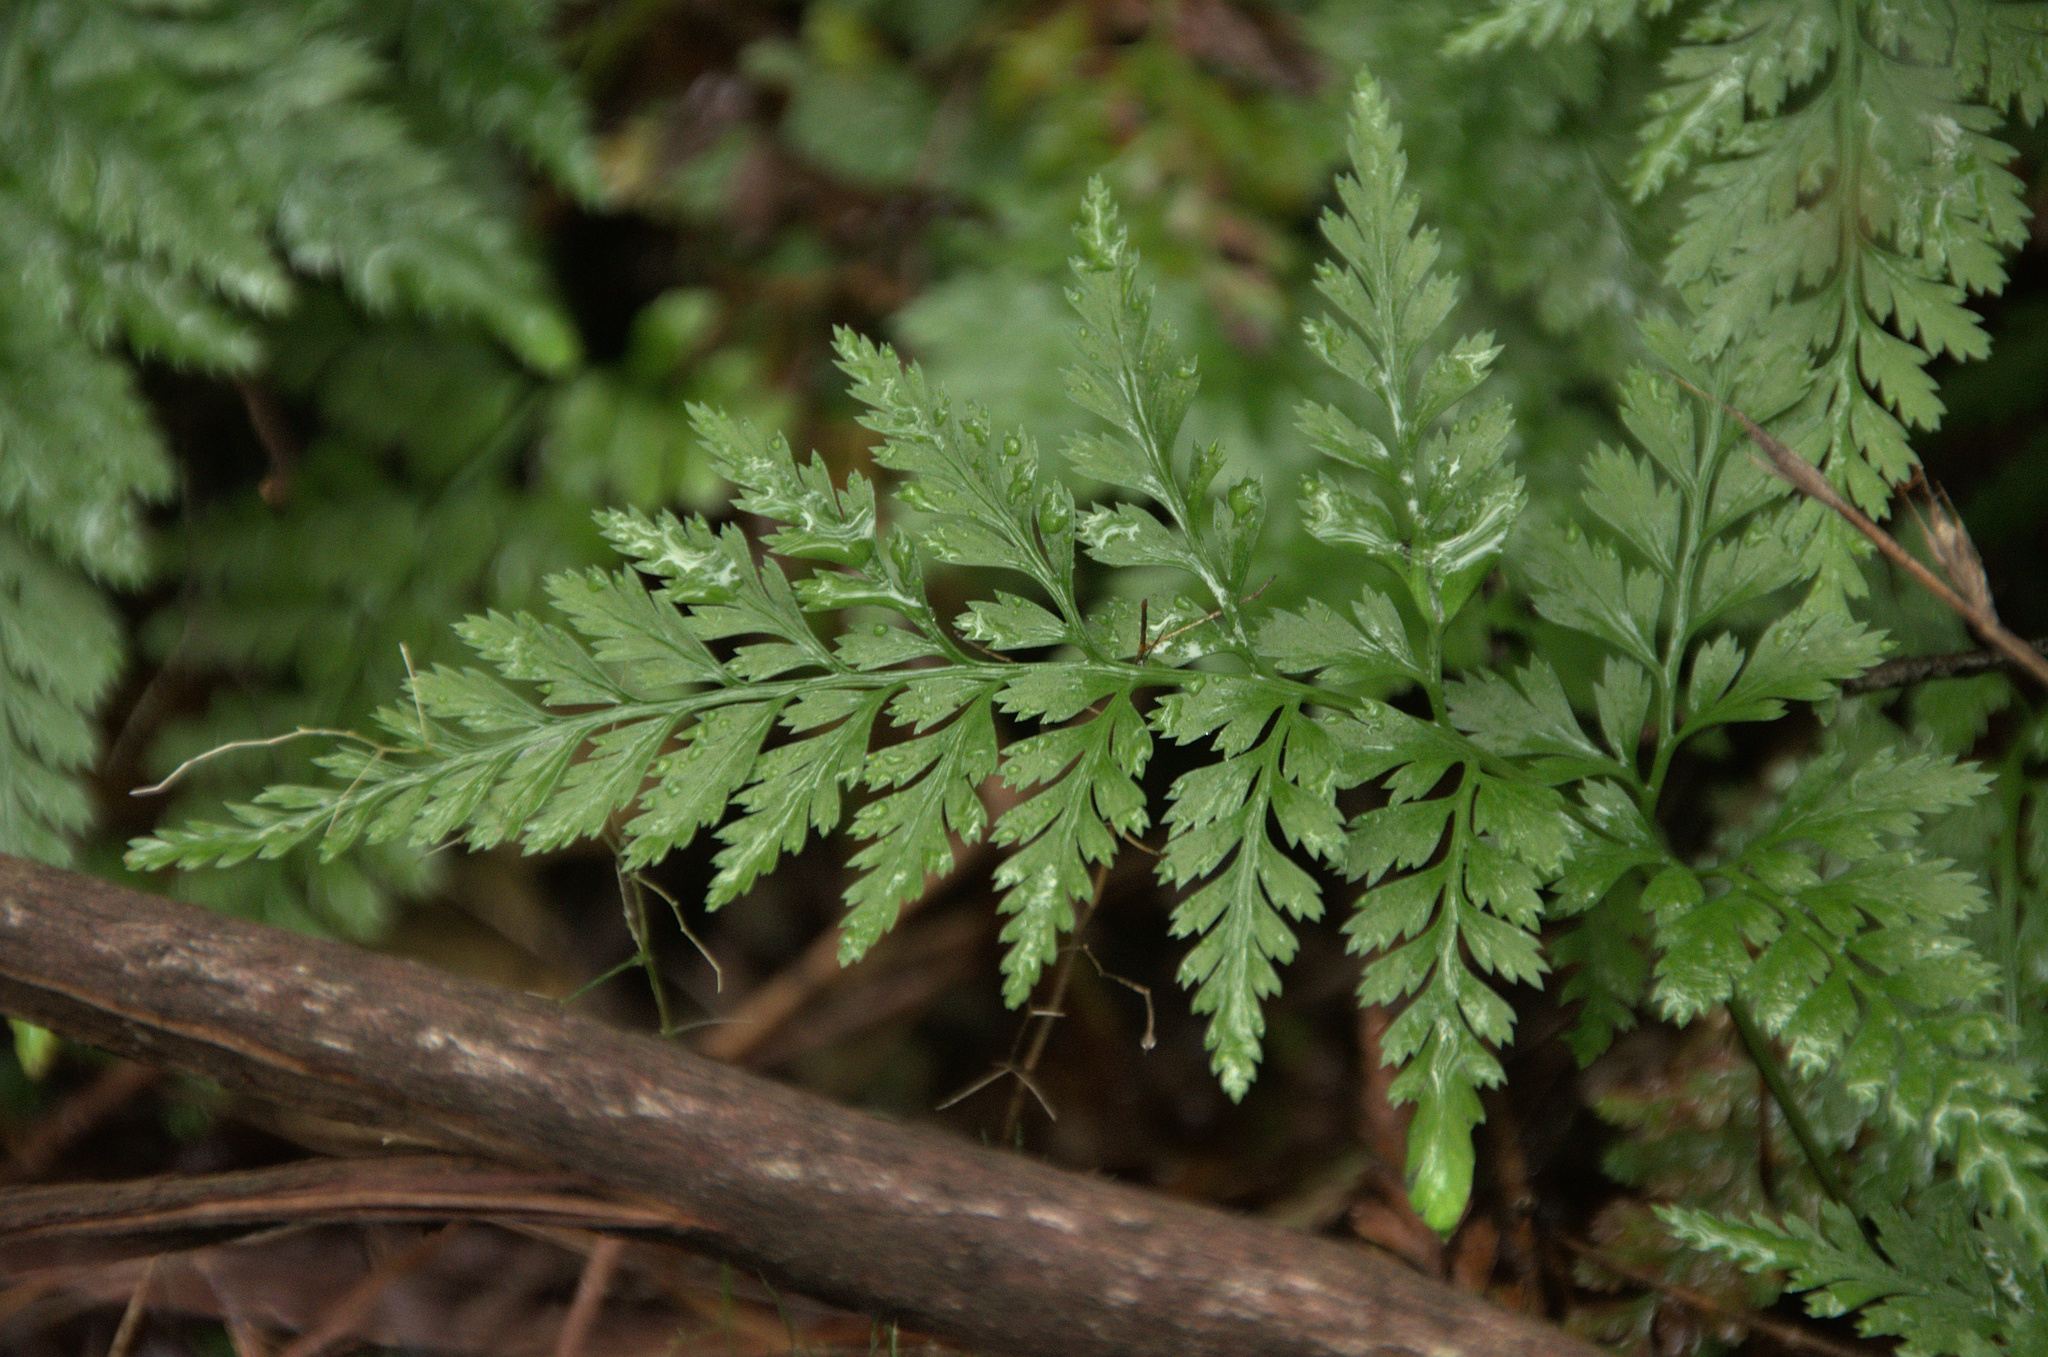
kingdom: Plantae
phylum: Tracheophyta
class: Polypodiopsida
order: Polypodiales
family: Aspleniaceae
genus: Asplenium
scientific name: Asplenium onopteris
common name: Irish spleenwort
